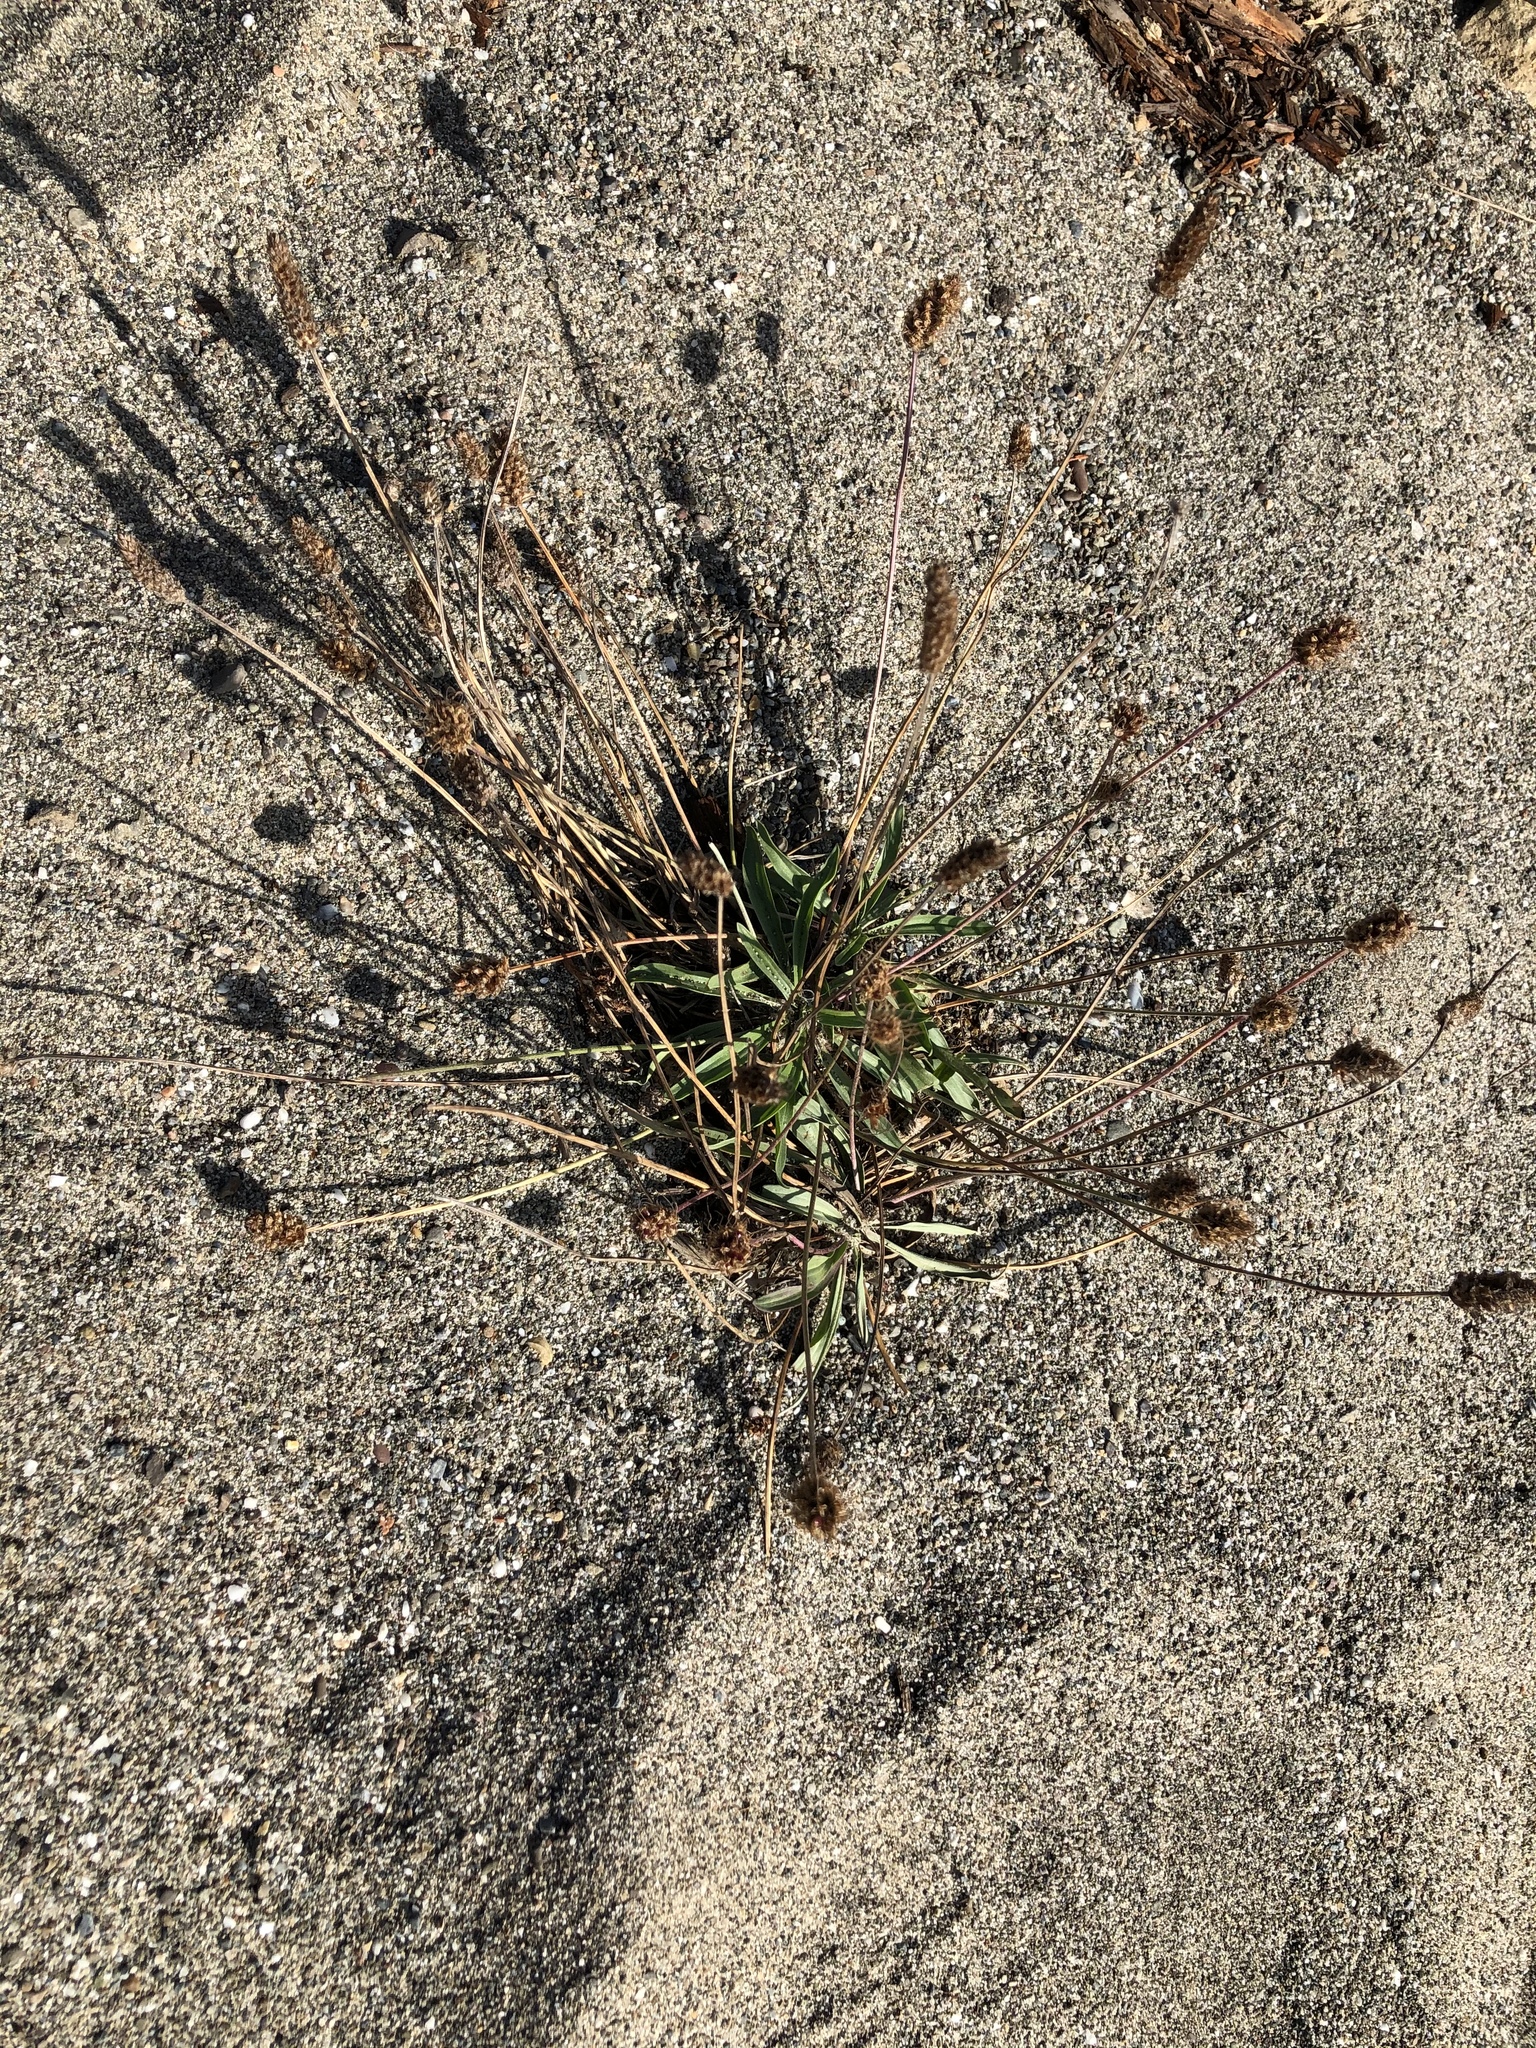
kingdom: Plantae
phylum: Tracheophyta
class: Magnoliopsida
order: Lamiales
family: Plantaginaceae
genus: Plantago
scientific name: Plantago lanceolata
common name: Ribwort plantain
